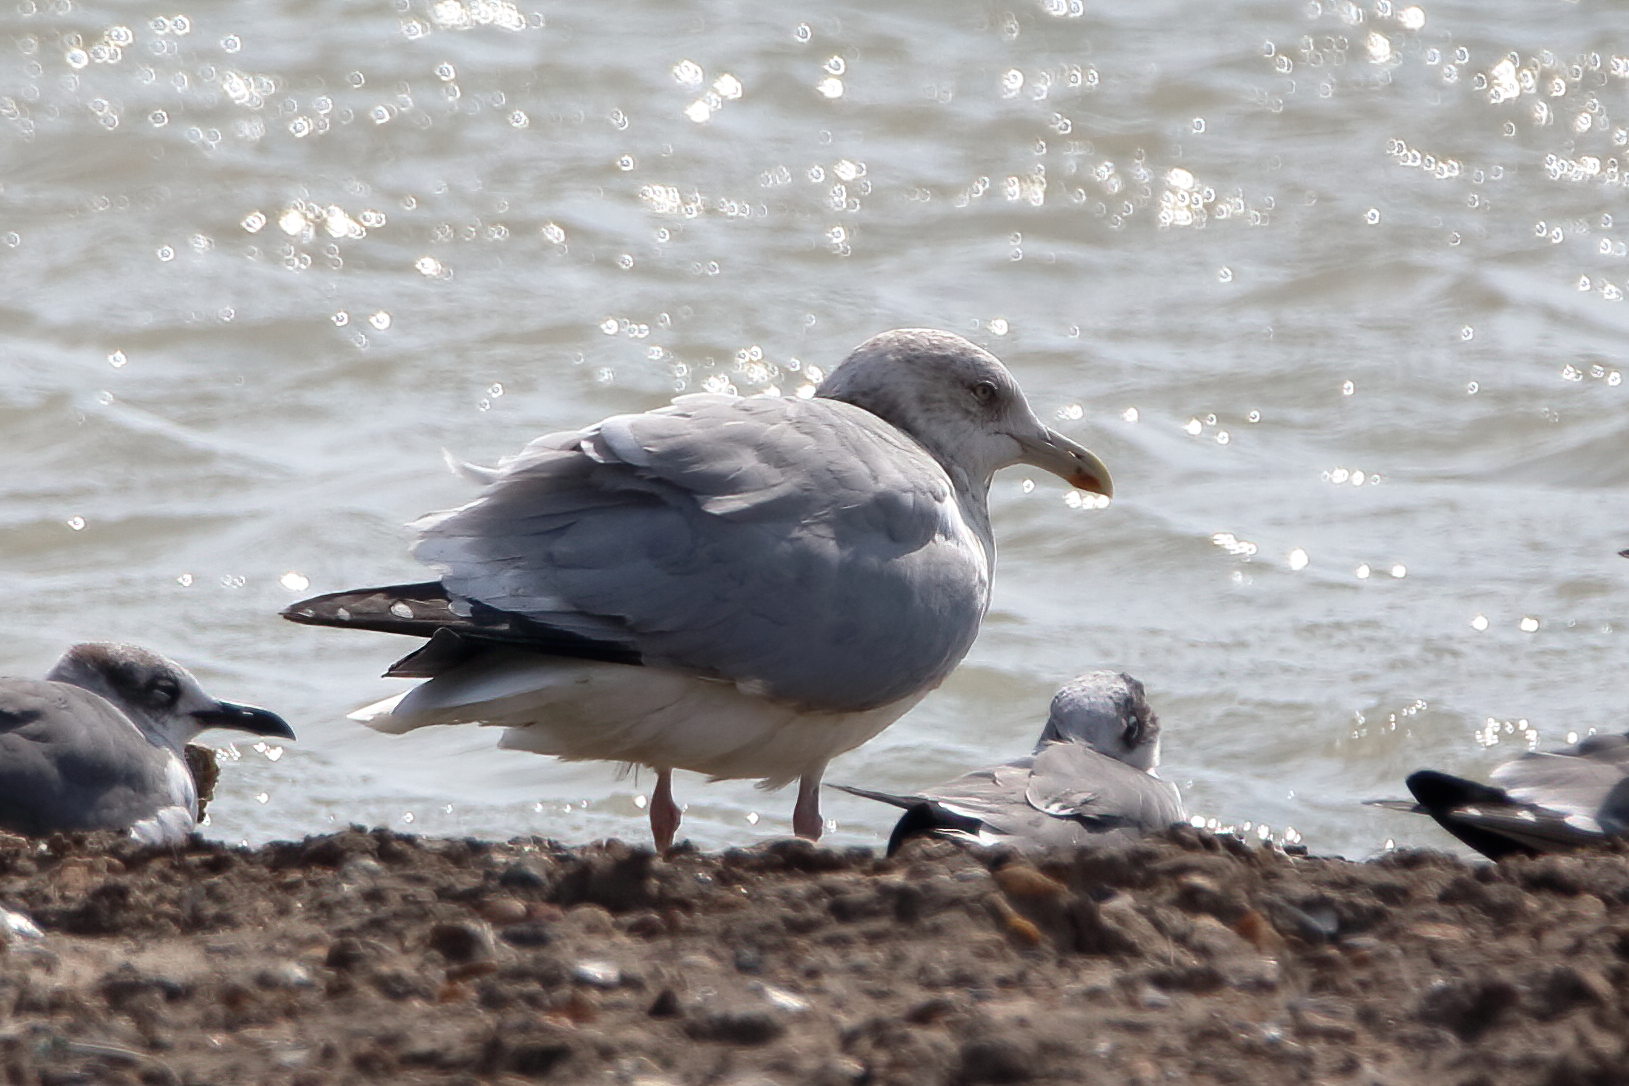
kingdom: Animalia
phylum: Chordata
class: Aves
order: Charadriiformes
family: Laridae
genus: Larus
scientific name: Larus argentatus
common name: Herring gull
